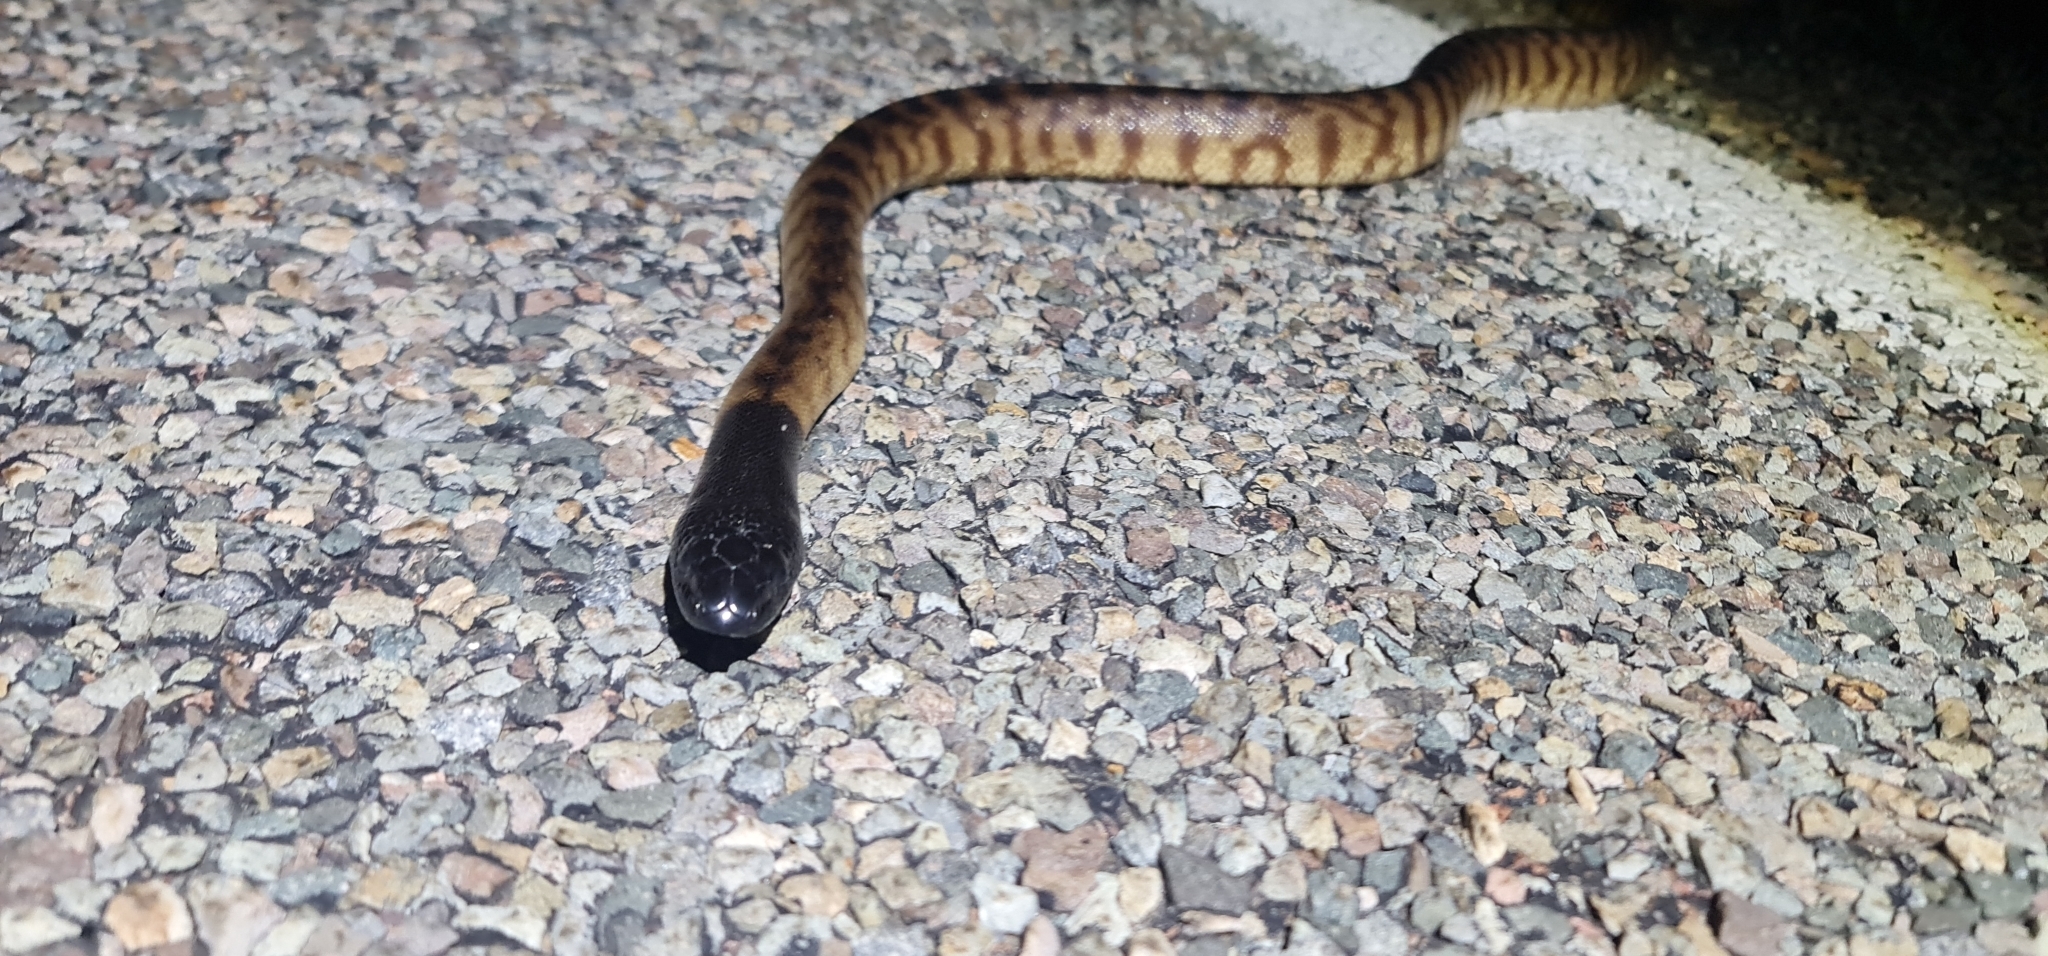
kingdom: Animalia
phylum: Chordata
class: Squamata
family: Pythonidae
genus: Aspidites
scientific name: Aspidites melanocephalus
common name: Black-headed python
